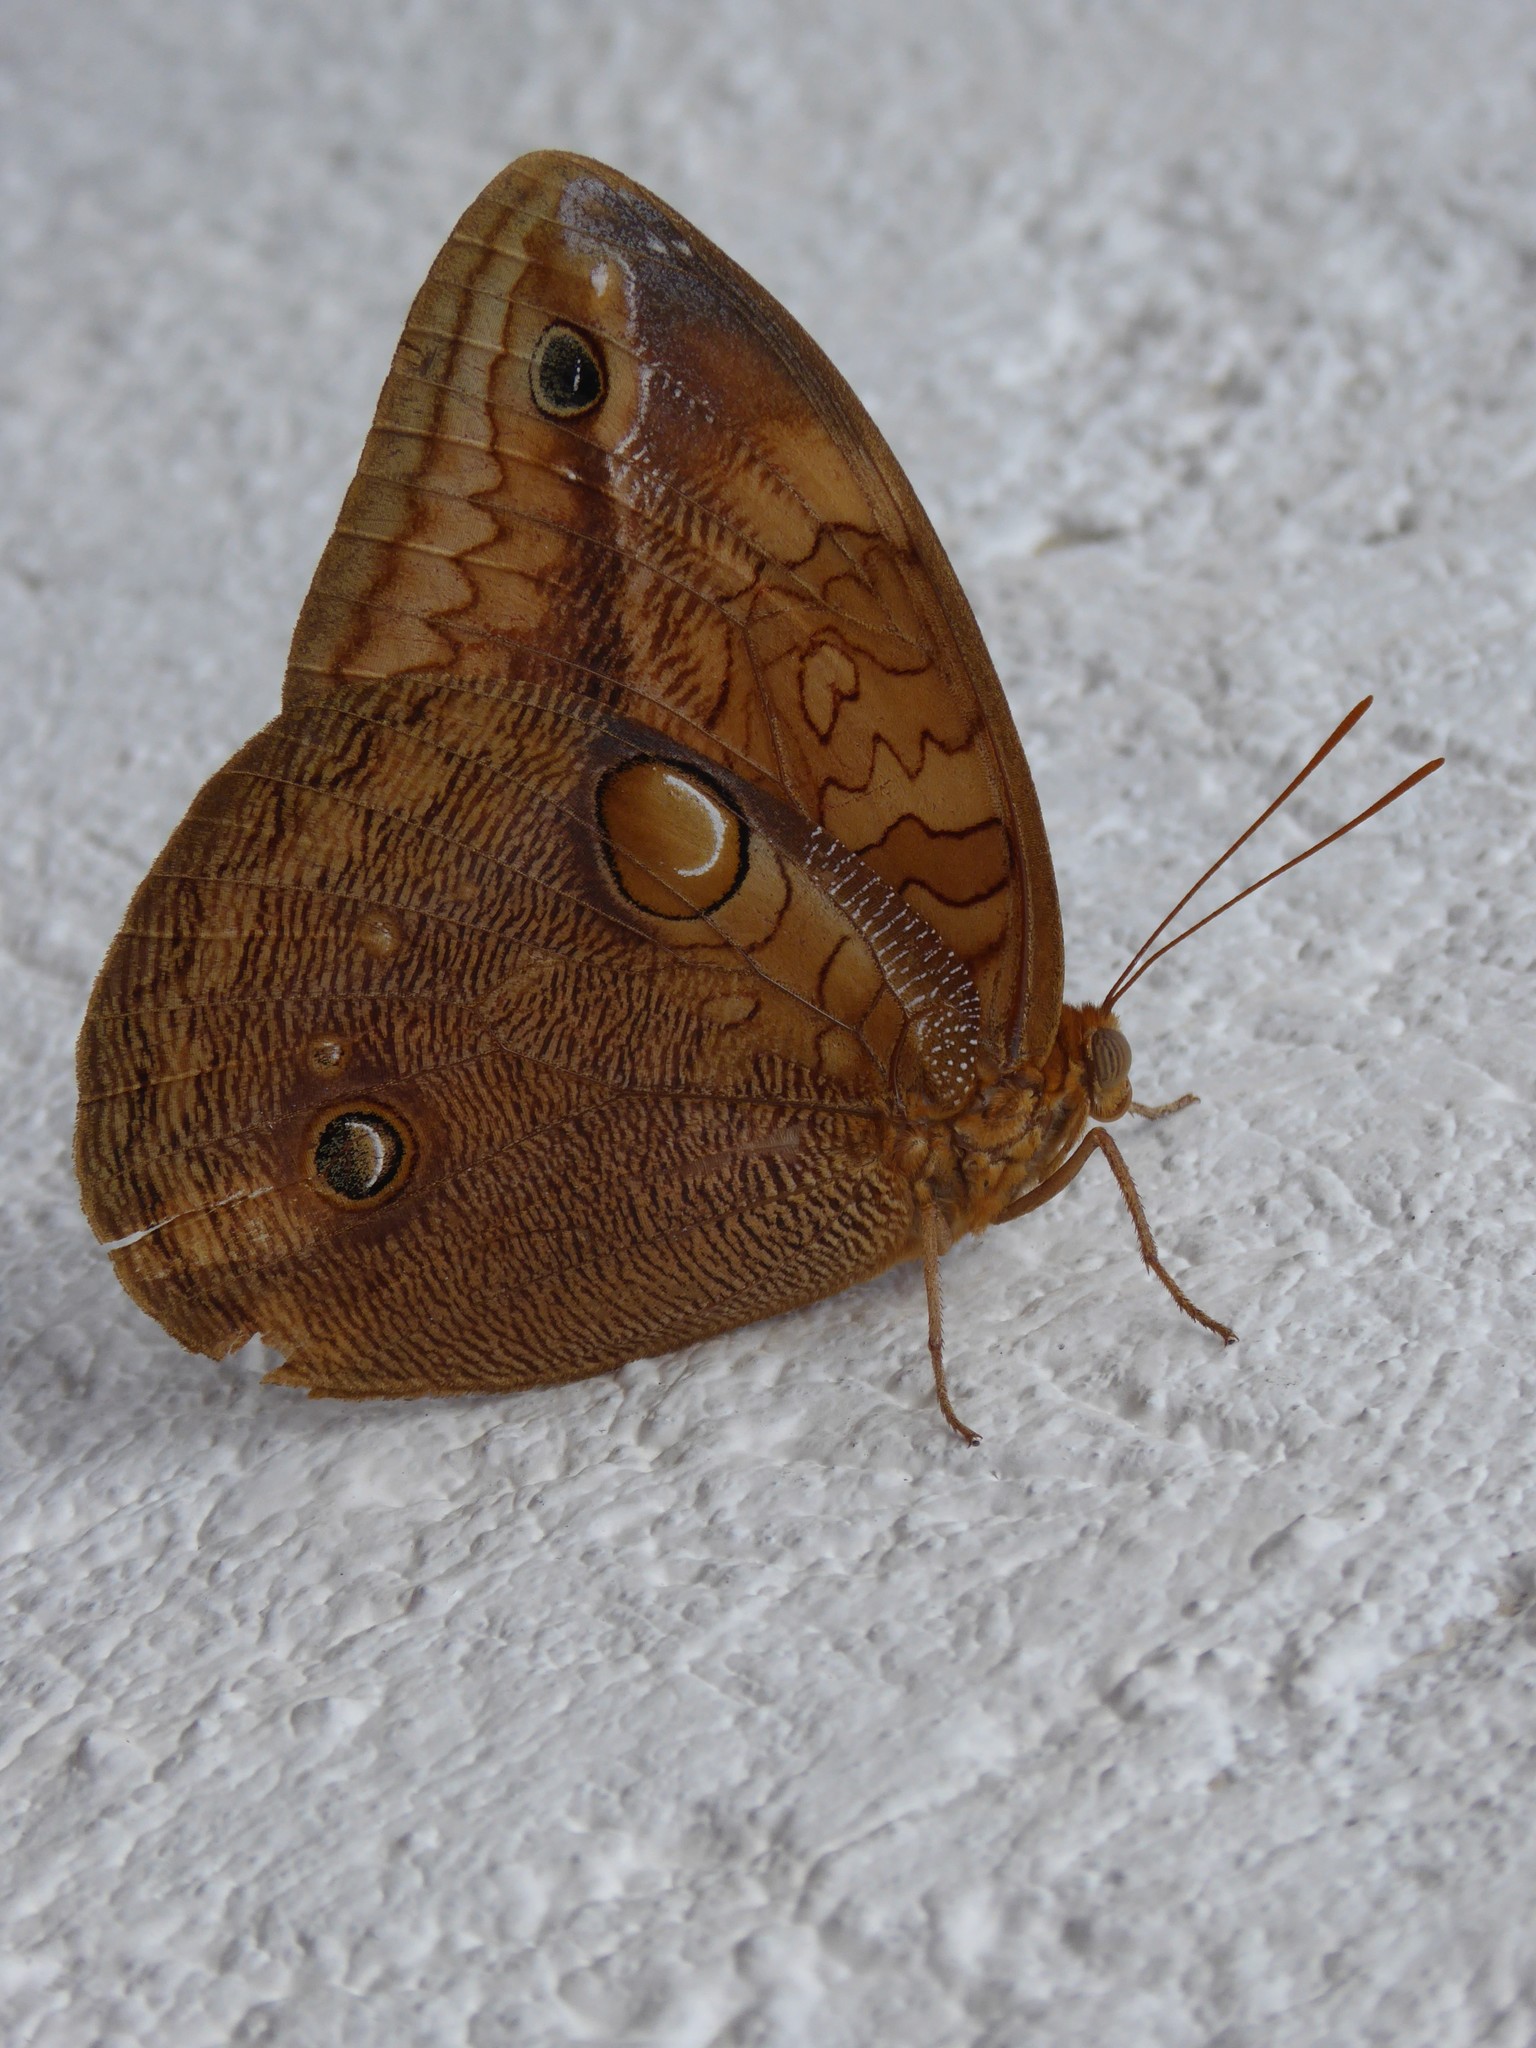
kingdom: Animalia
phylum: Arthropoda
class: Insecta
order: Lepidoptera
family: Nymphalidae
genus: Opsiphanes
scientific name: Opsiphanes boisduvalii
